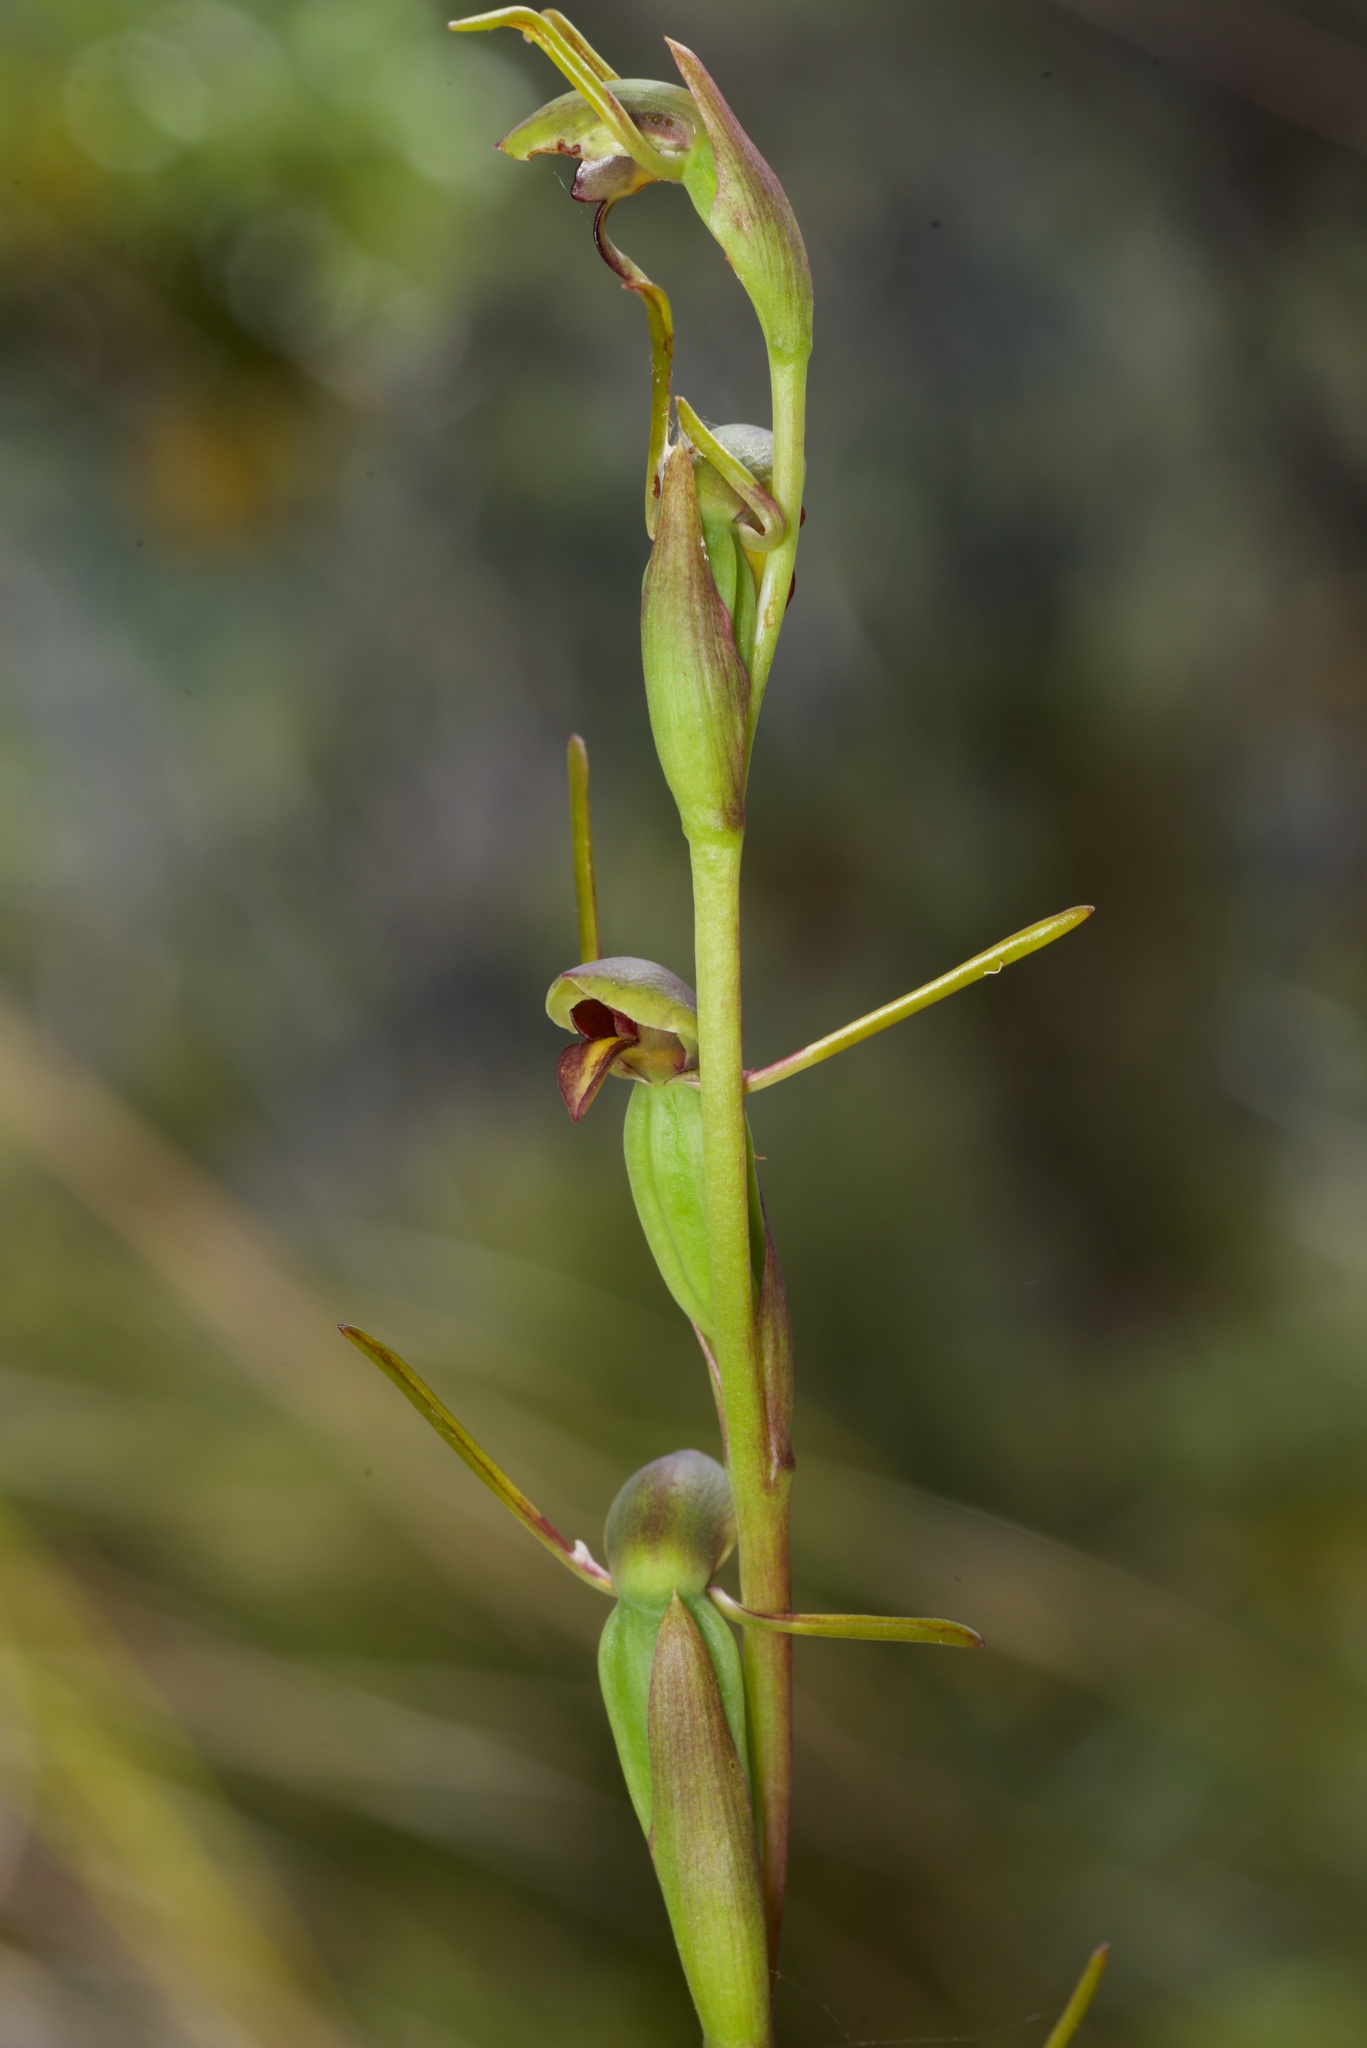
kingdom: Plantae
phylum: Tracheophyta
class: Liliopsida
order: Asparagales
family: Orchidaceae
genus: Orthoceras
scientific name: Orthoceras novae-zeelandiae
